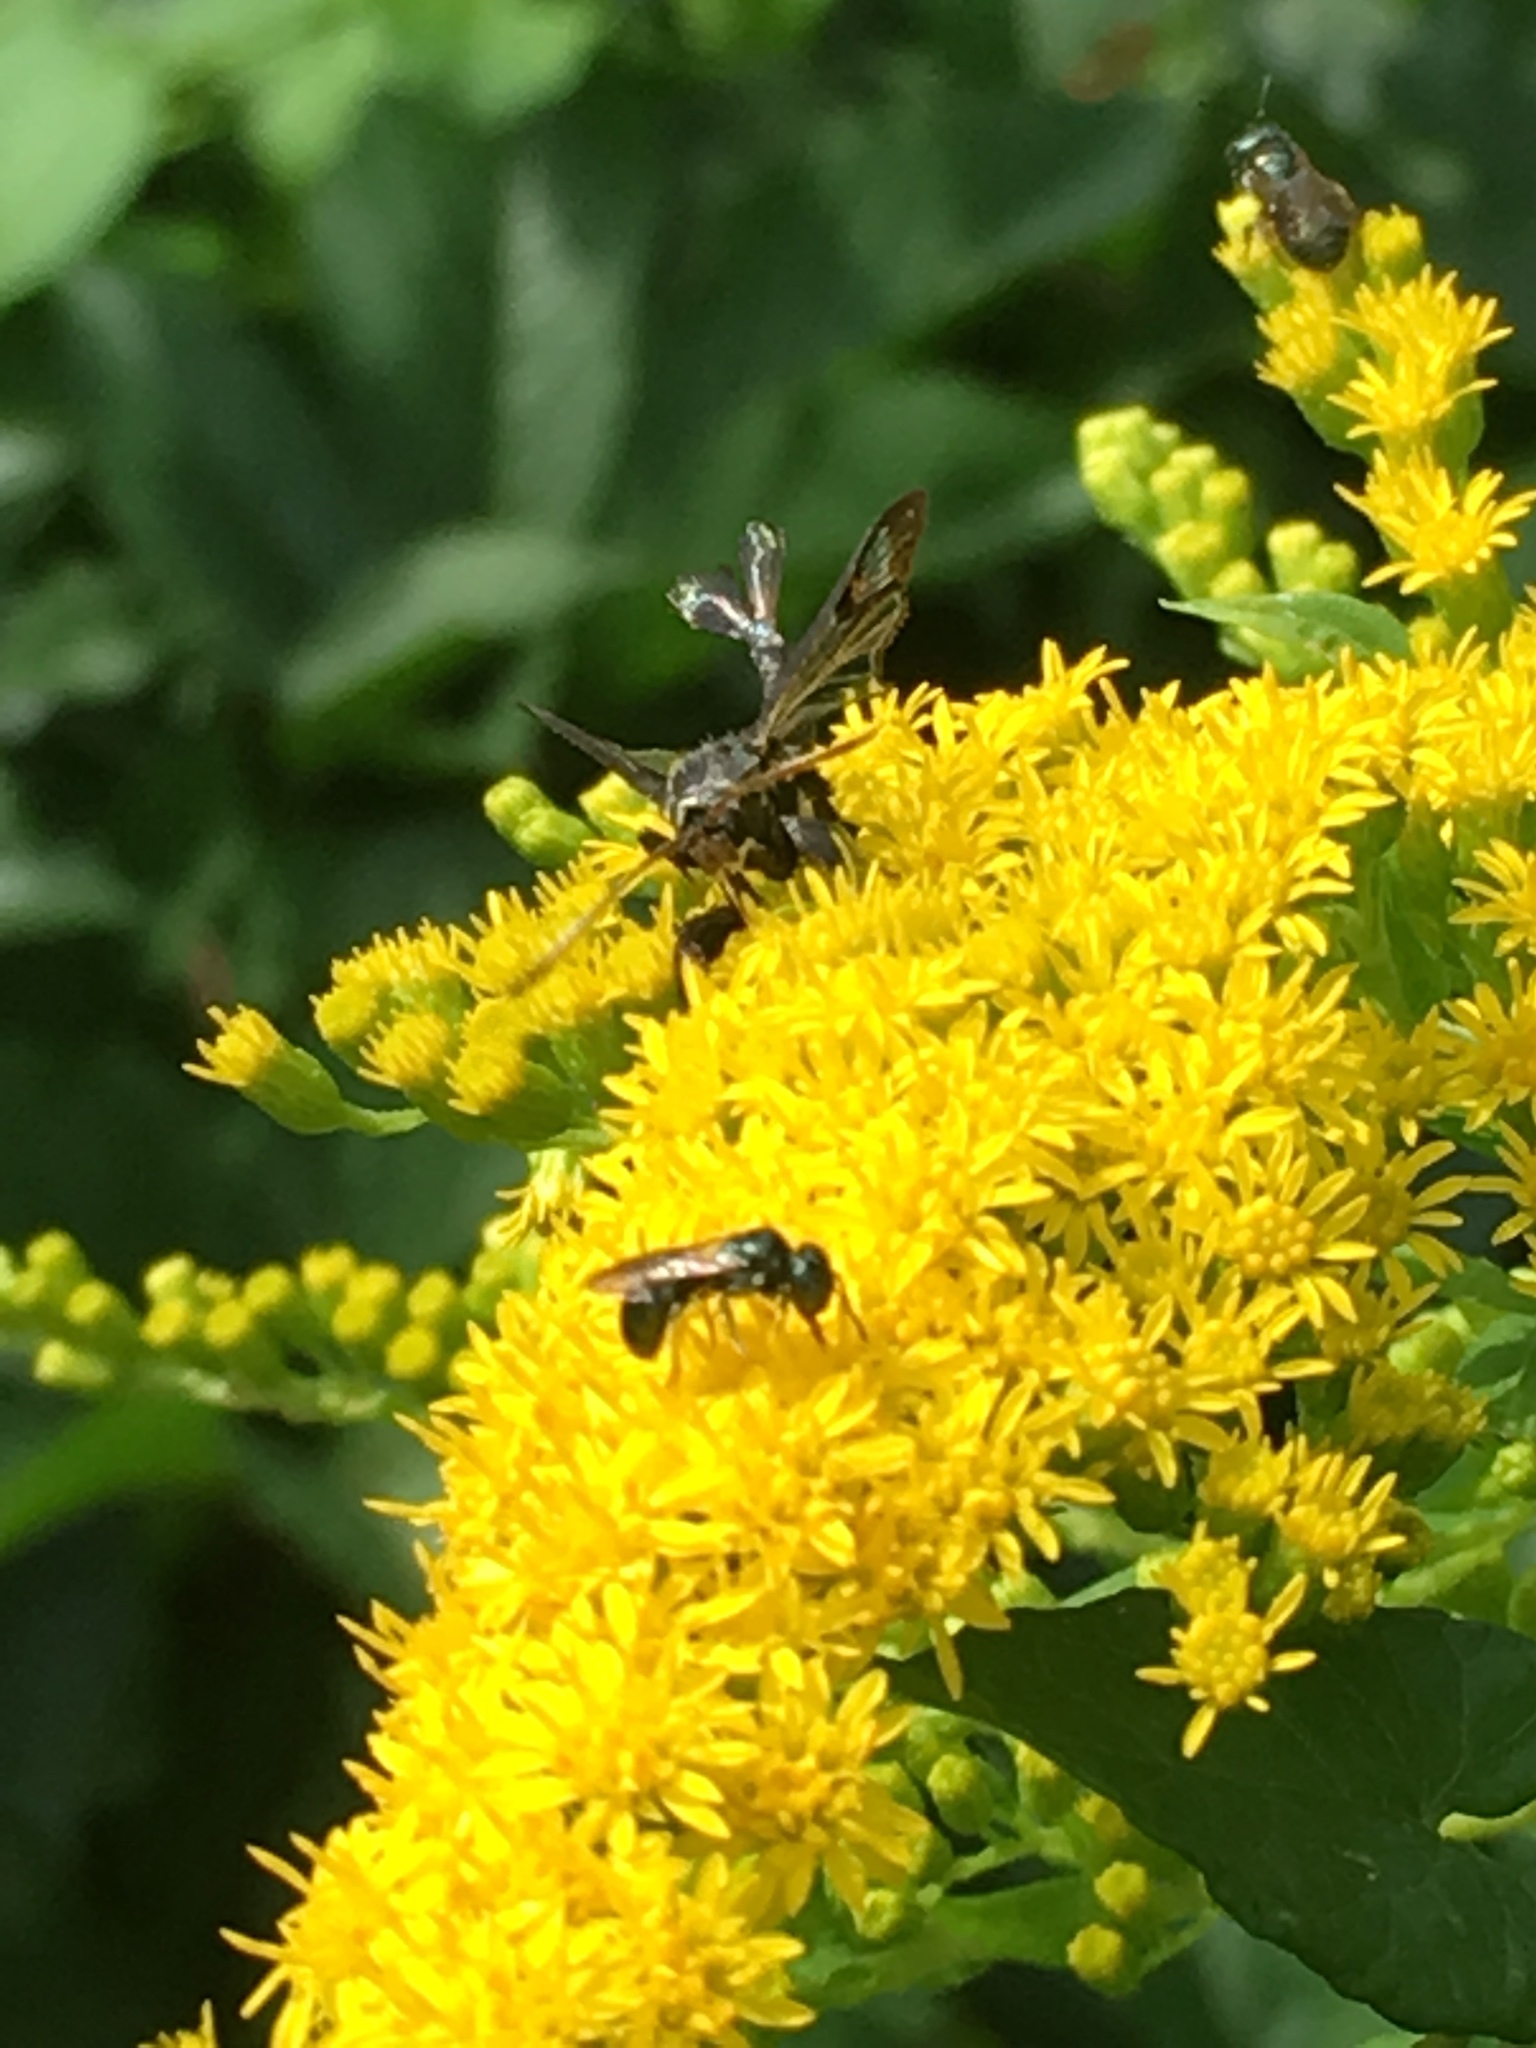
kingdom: Animalia
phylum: Arthropoda
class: Insecta
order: Lepidoptera
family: Sesiidae
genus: Albuna
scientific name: Albuna fraxini
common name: Virginia creeper clearwing
